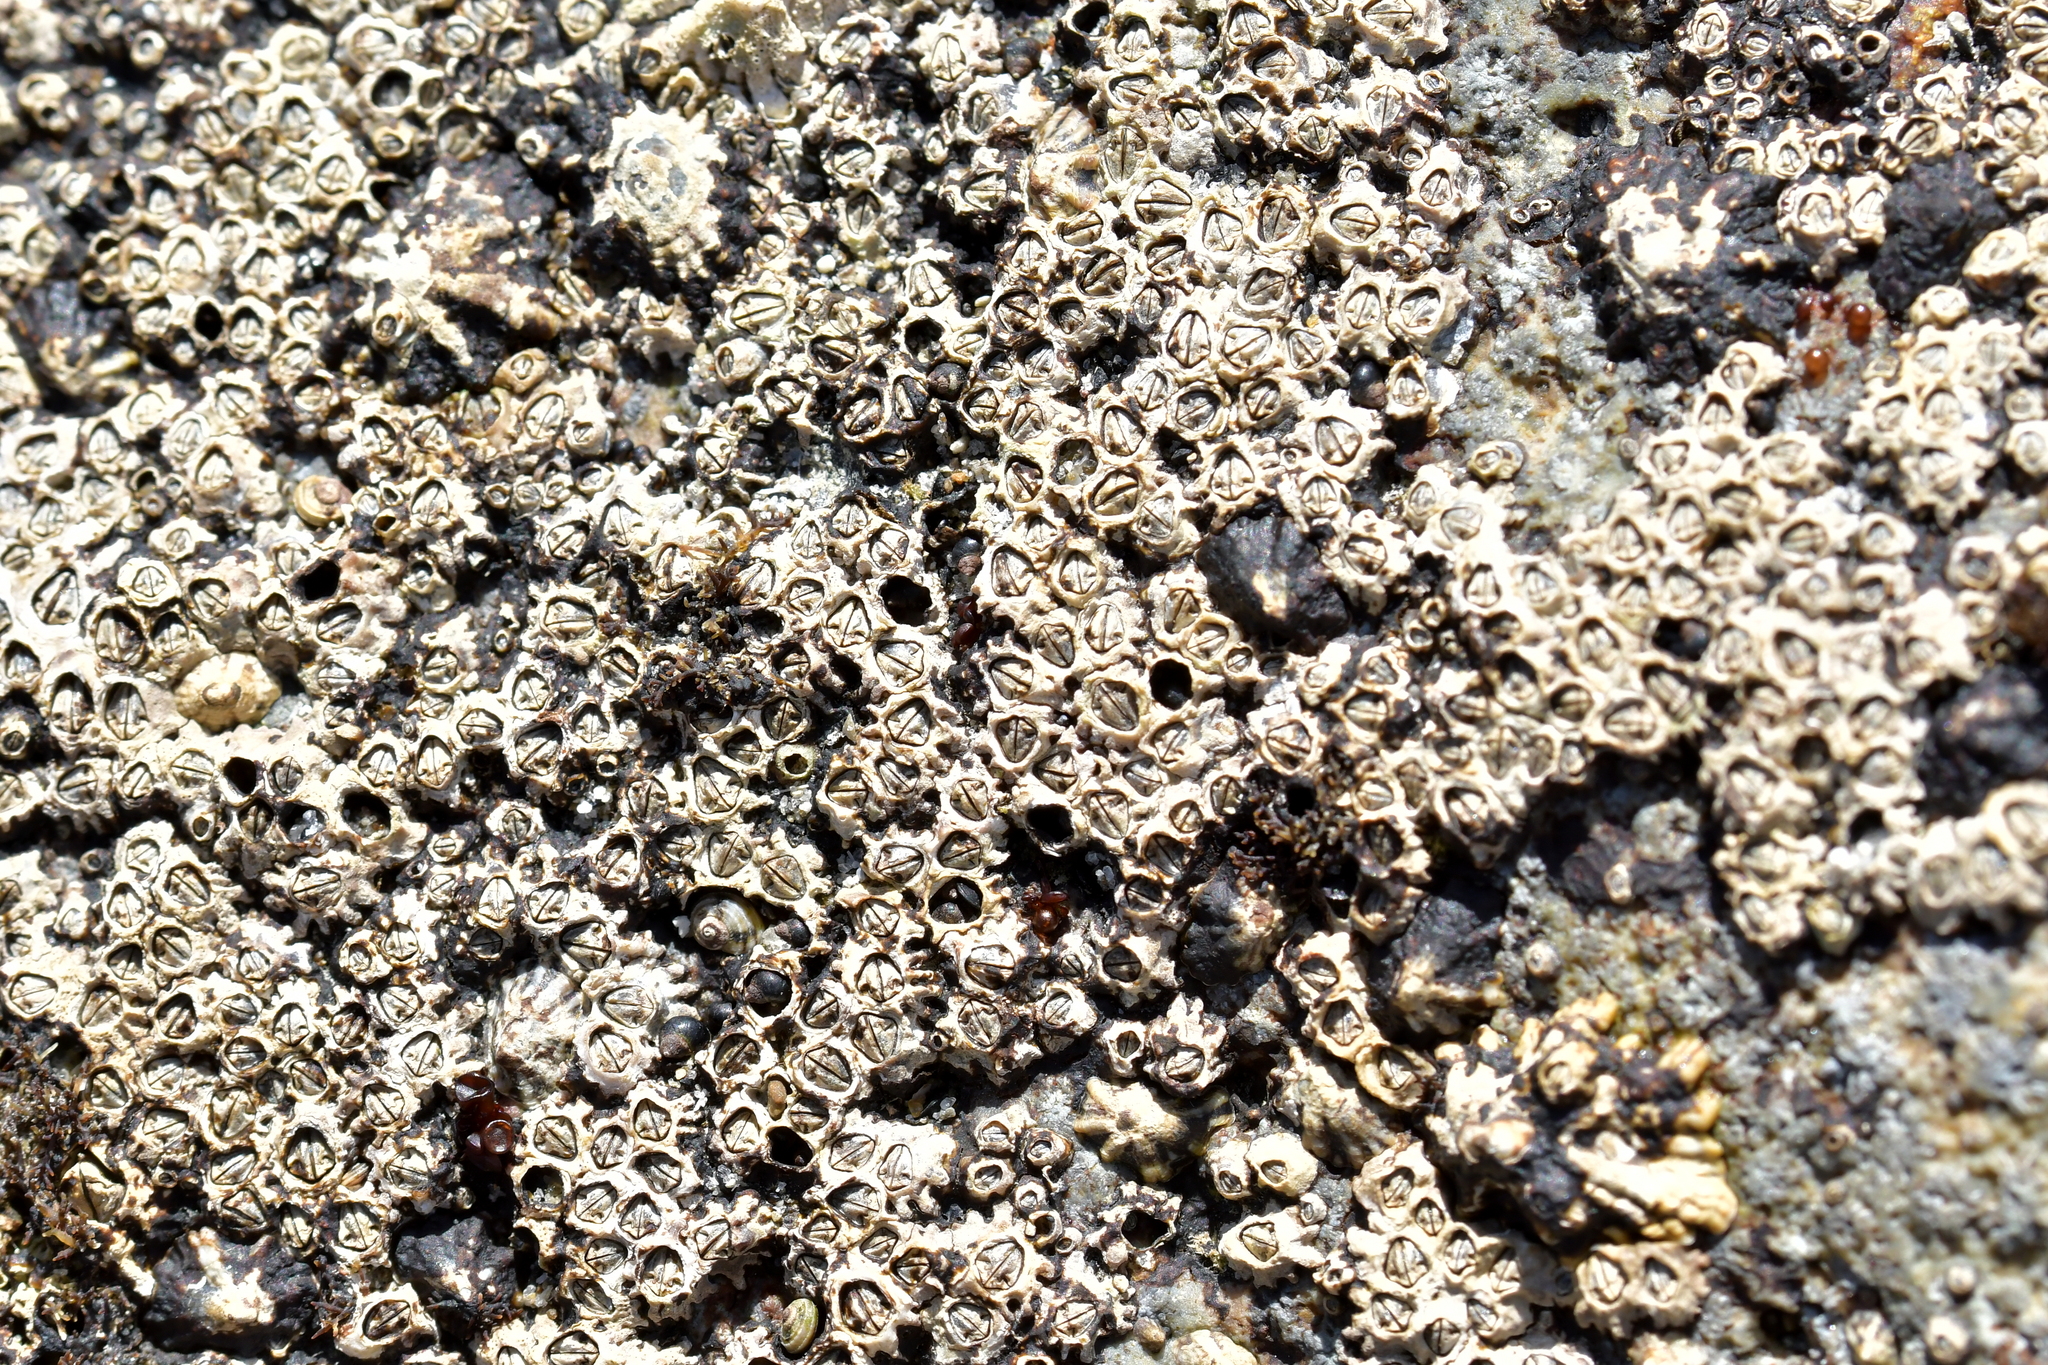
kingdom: Animalia
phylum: Arthropoda
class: Maxillopoda
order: Sessilia
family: Chthamalidae
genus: Chamaesipho
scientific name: Chamaesipho columna
